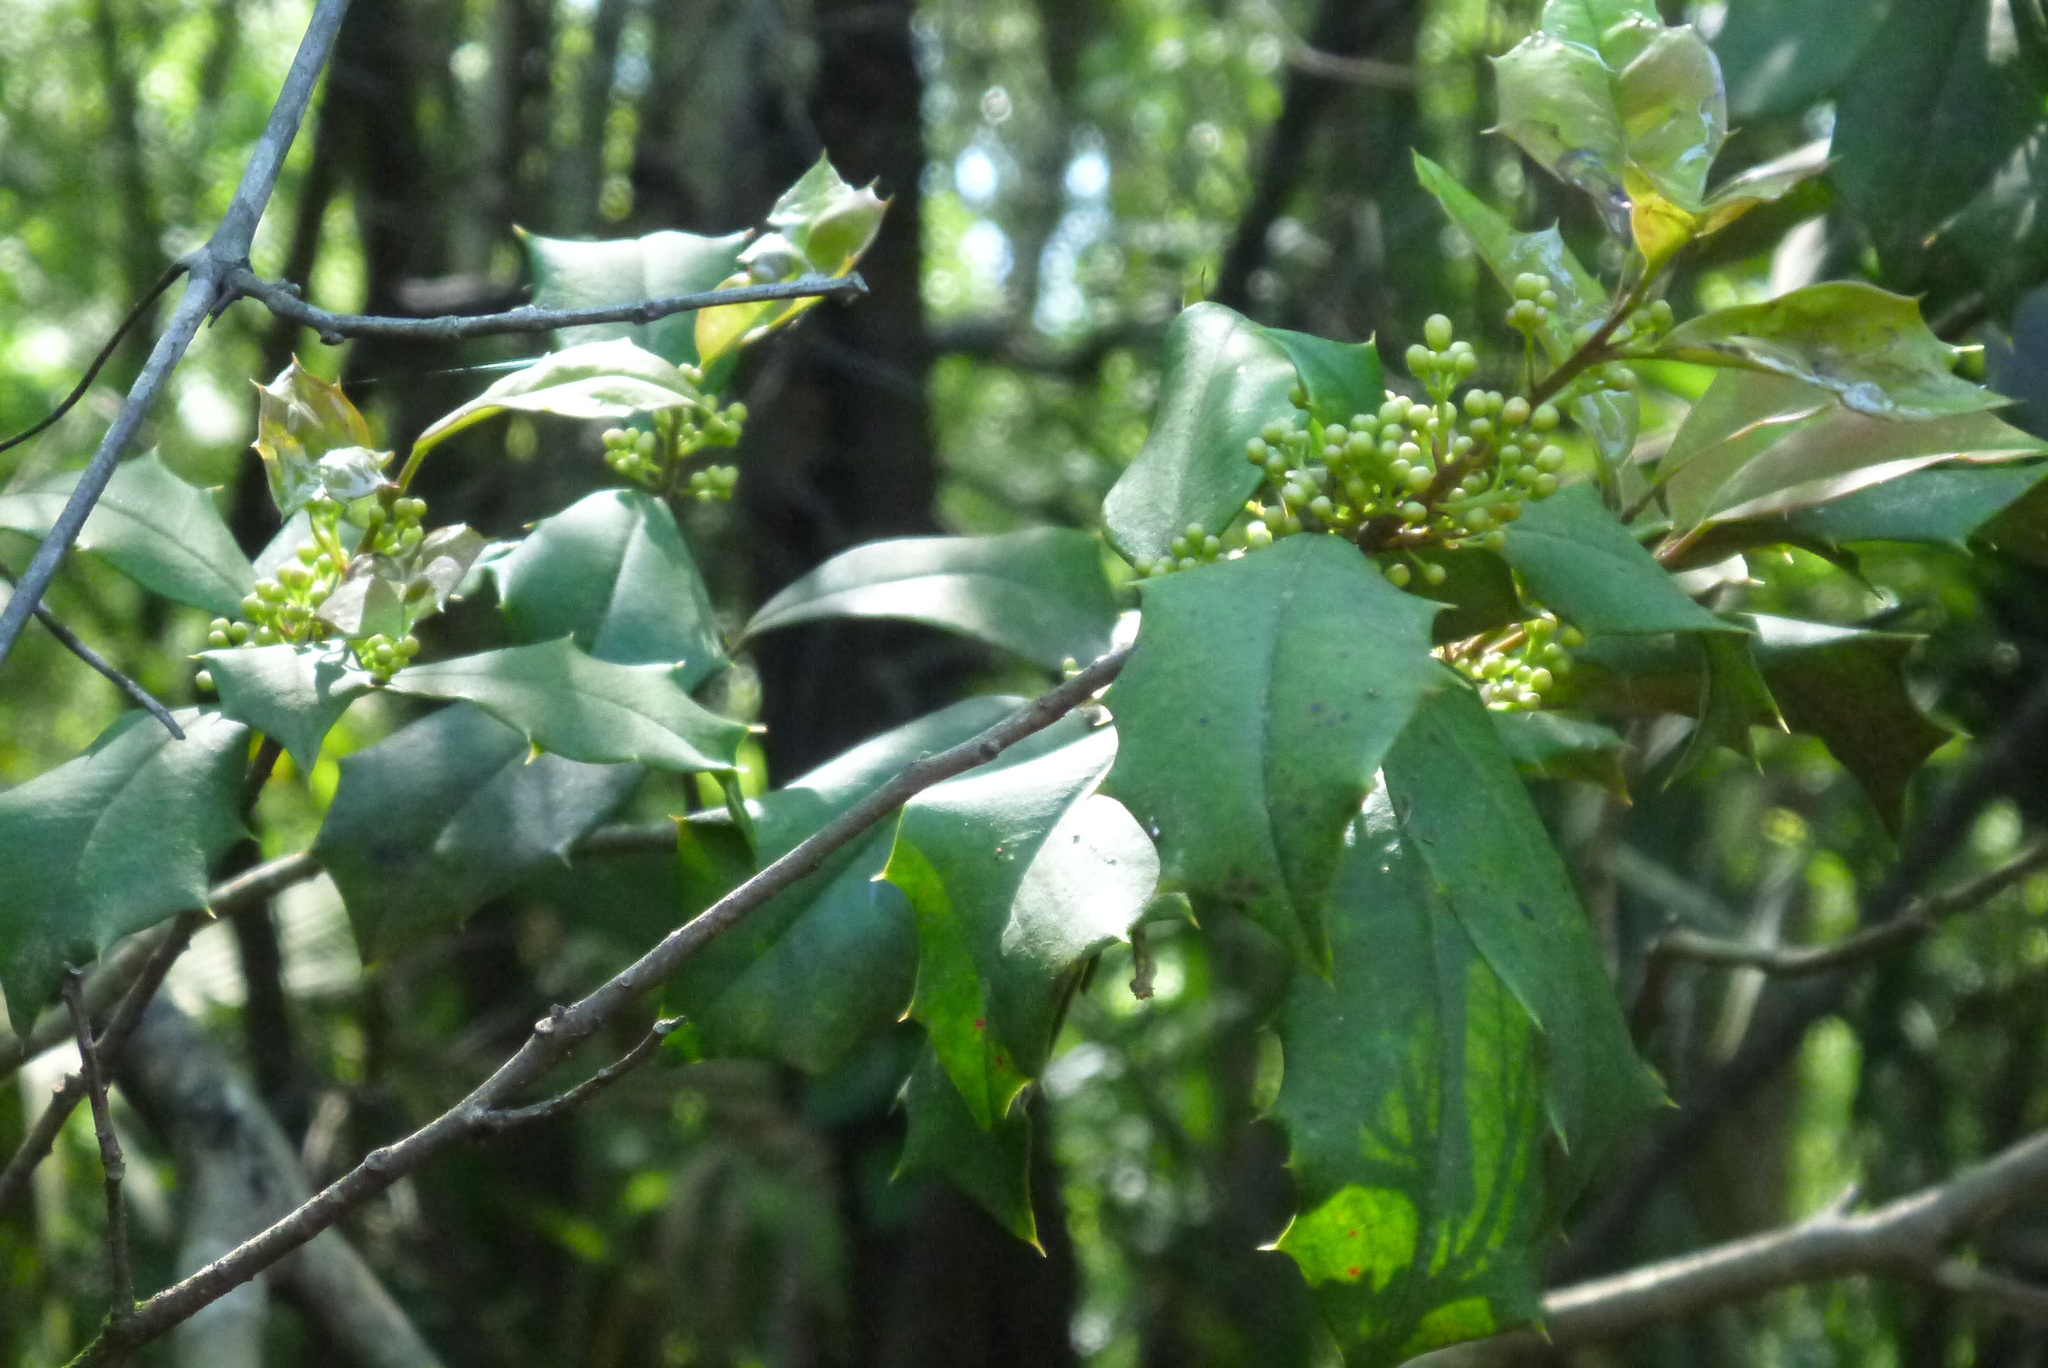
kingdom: Plantae
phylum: Tracheophyta
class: Magnoliopsida
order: Aquifoliales
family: Aquifoliaceae
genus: Ilex
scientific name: Ilex opaca
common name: American holly
